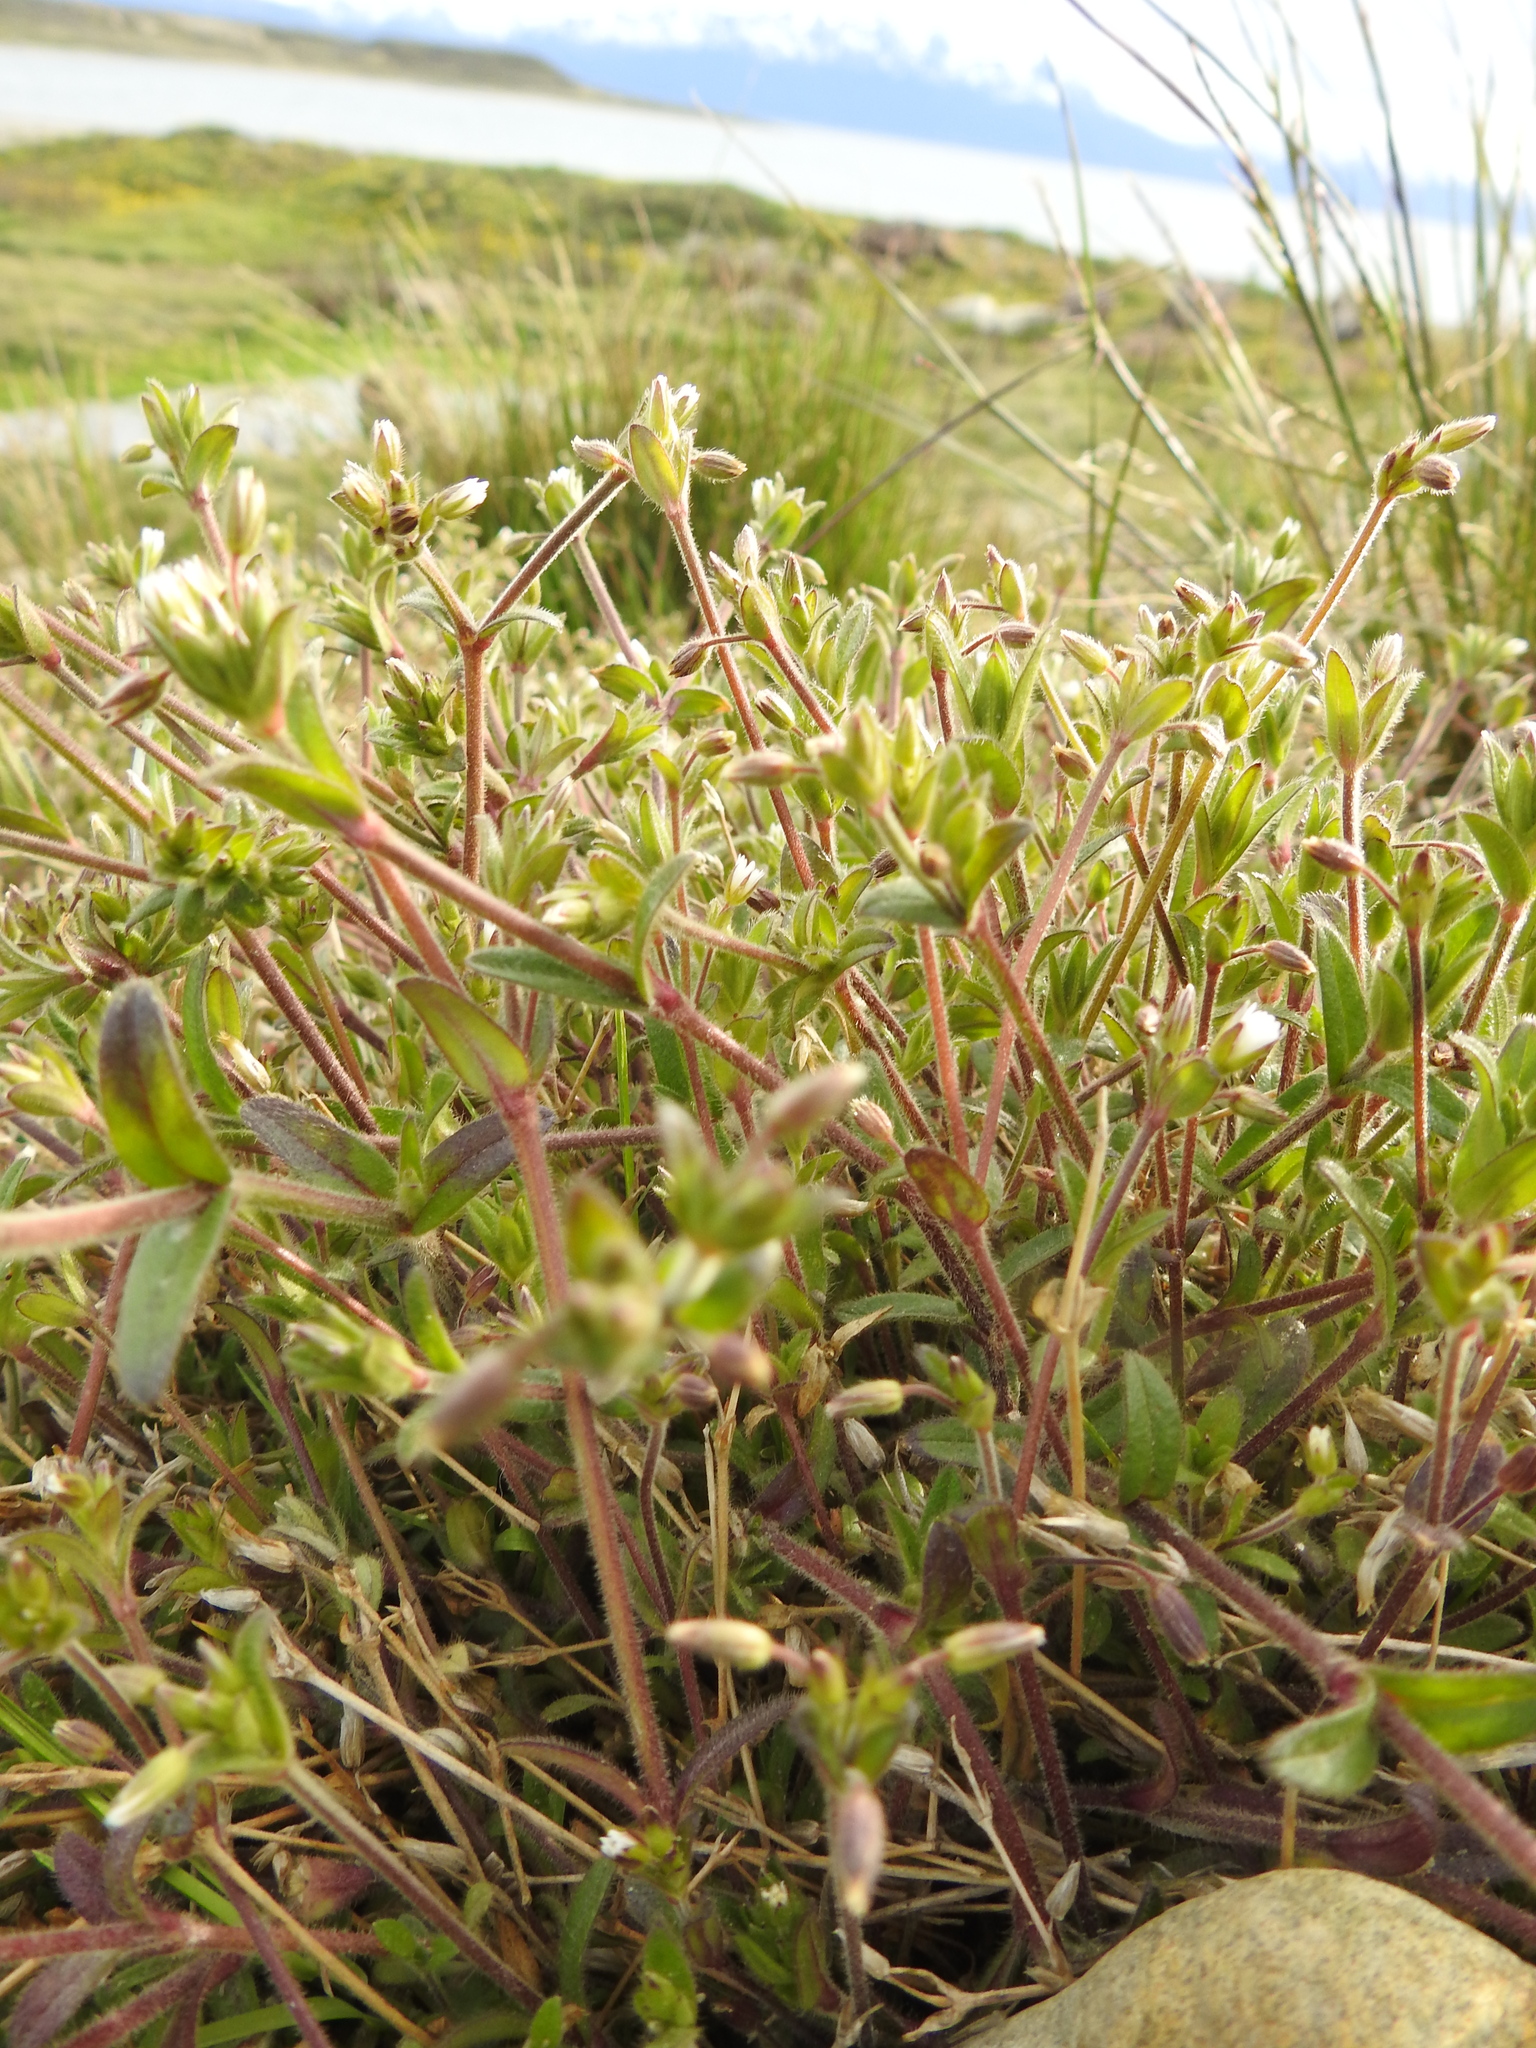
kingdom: Plantae
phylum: Tracheophyta
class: Magnoliopsida
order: Caryophyllales
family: Caryophyllaceae
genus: Cerastium
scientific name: Cerastium fontanum
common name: Common mouse-ear
